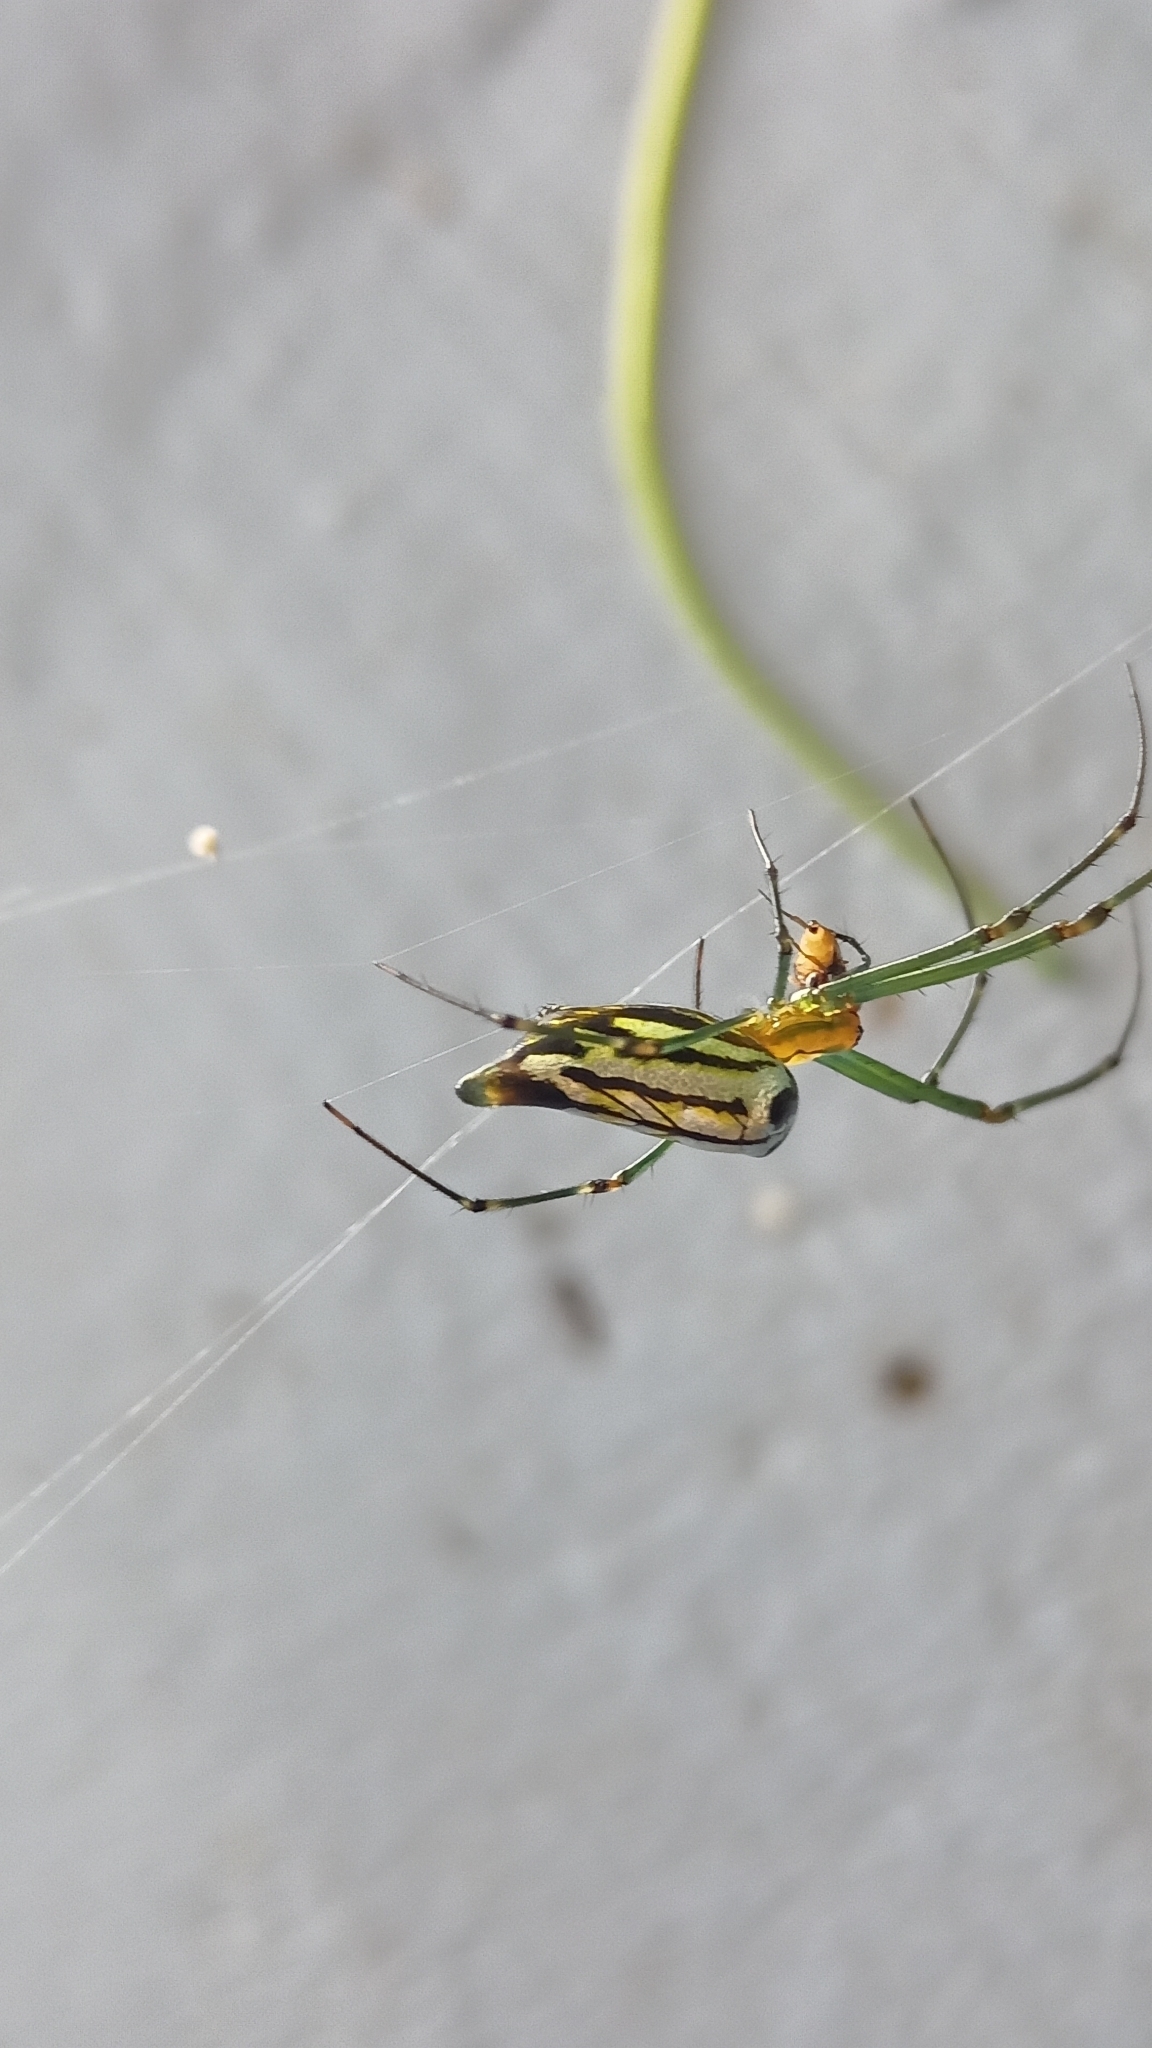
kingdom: Animalia
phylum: Arthropoda
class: Arachnida
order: Araneae
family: Tetragnathidae
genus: Leucauge
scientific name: Leucauge decorata
